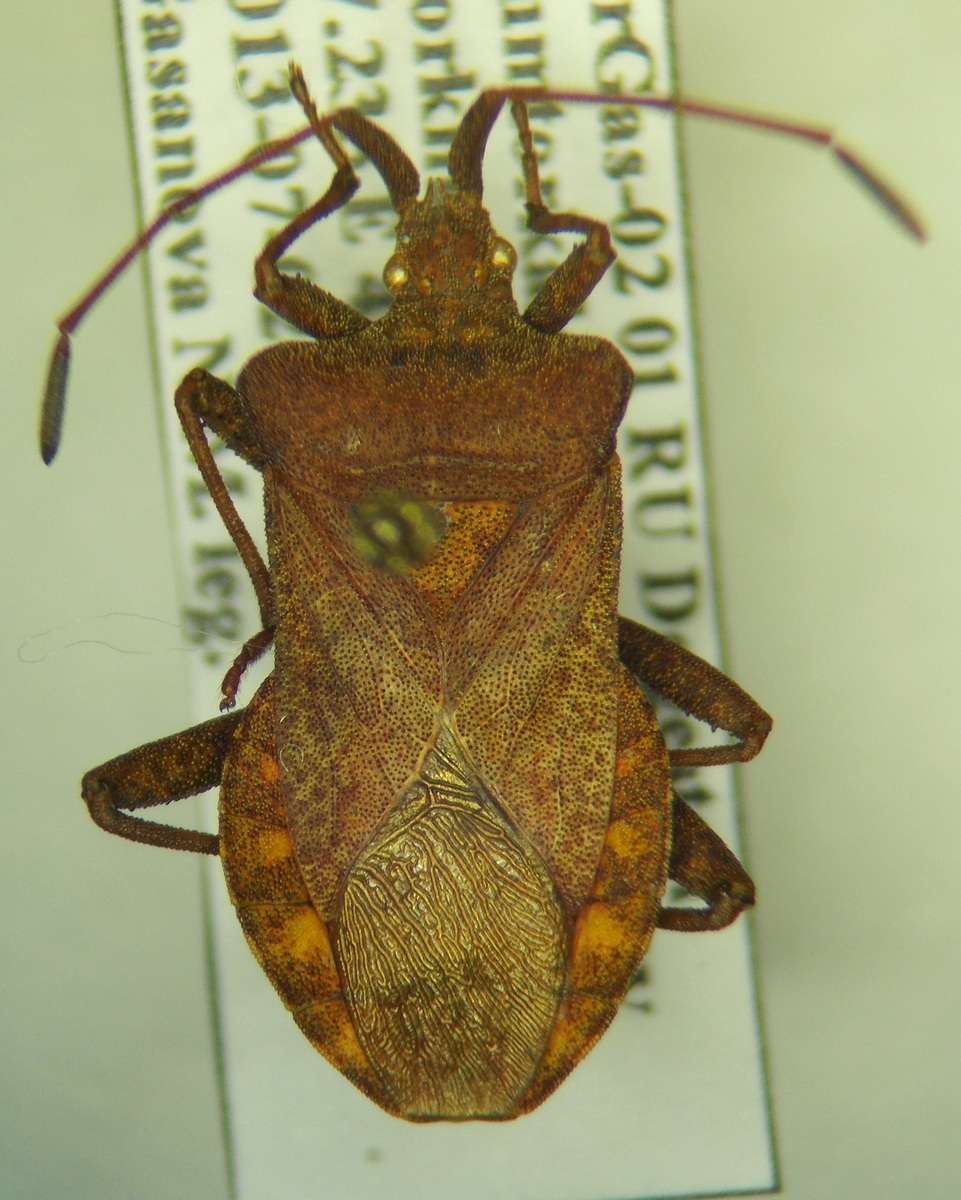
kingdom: Animalia
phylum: Arthropoda
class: Insecta
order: Hemiptera
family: Coreidae
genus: Coreus
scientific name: Coreus marginatus
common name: Dock bug
